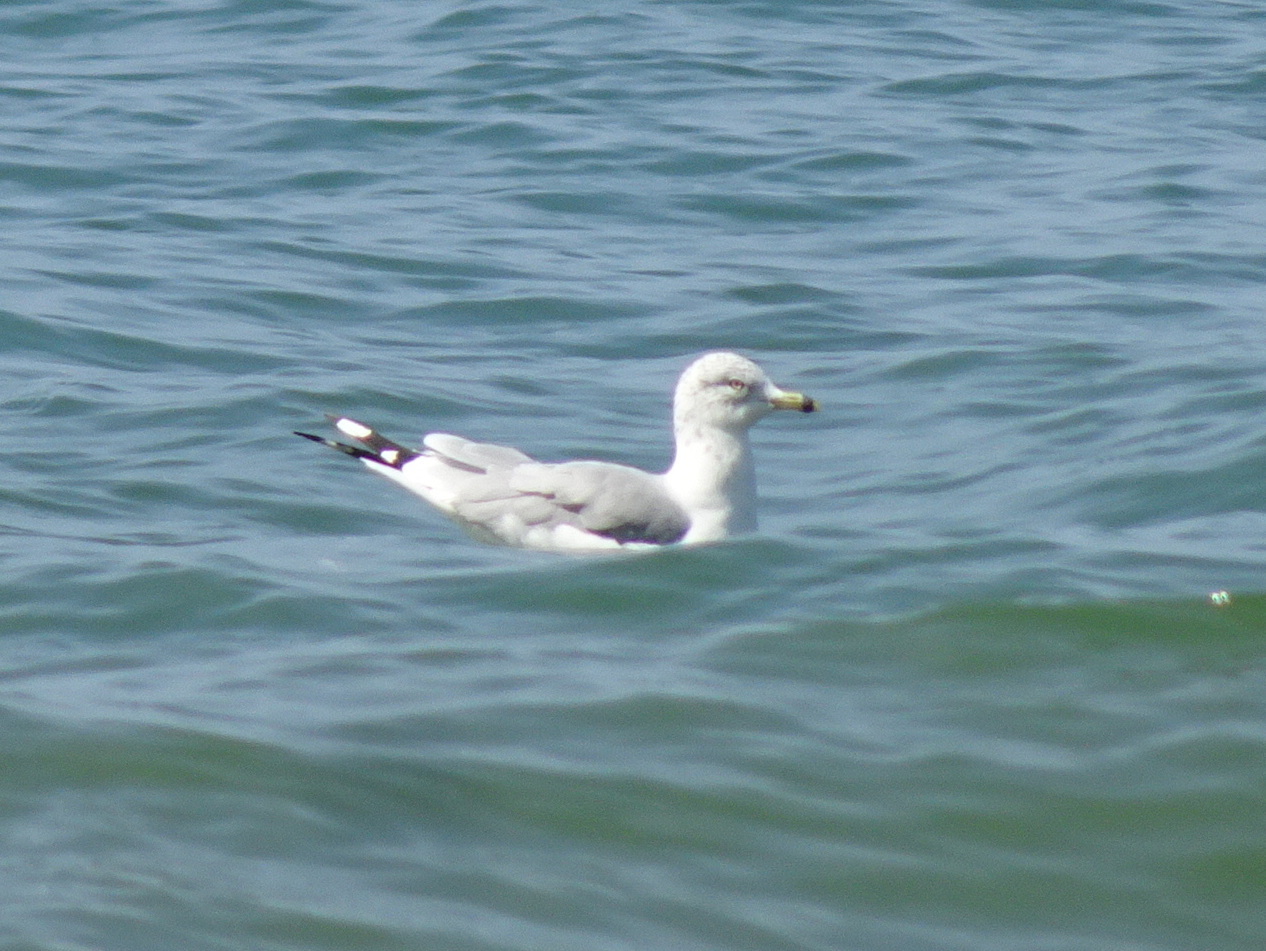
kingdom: Animalia
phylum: Chordata
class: Aves
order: Charadriiformes
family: Laridae
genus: Larus
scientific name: Larus delawarensis
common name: Ring-billed gull
